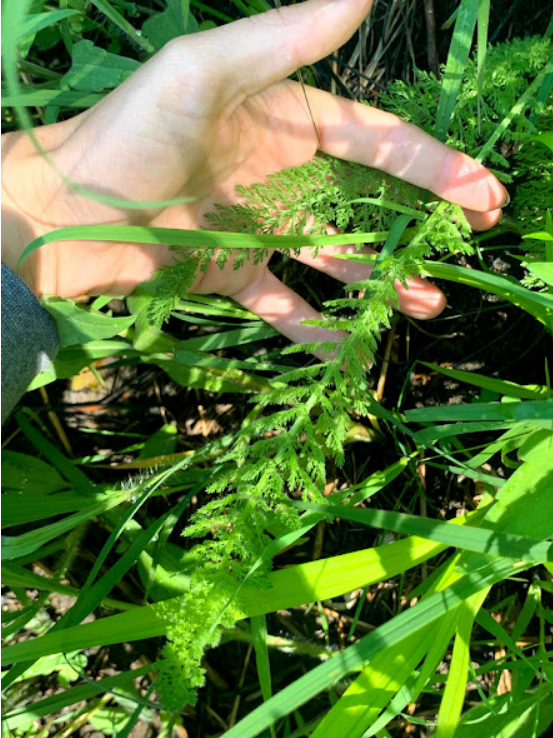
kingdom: Plantae
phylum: Tracheophyta
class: Magnoliopsida
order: Asterales
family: Asteraceae
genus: Achillea
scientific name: Achillea millefolium
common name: Yarrow
